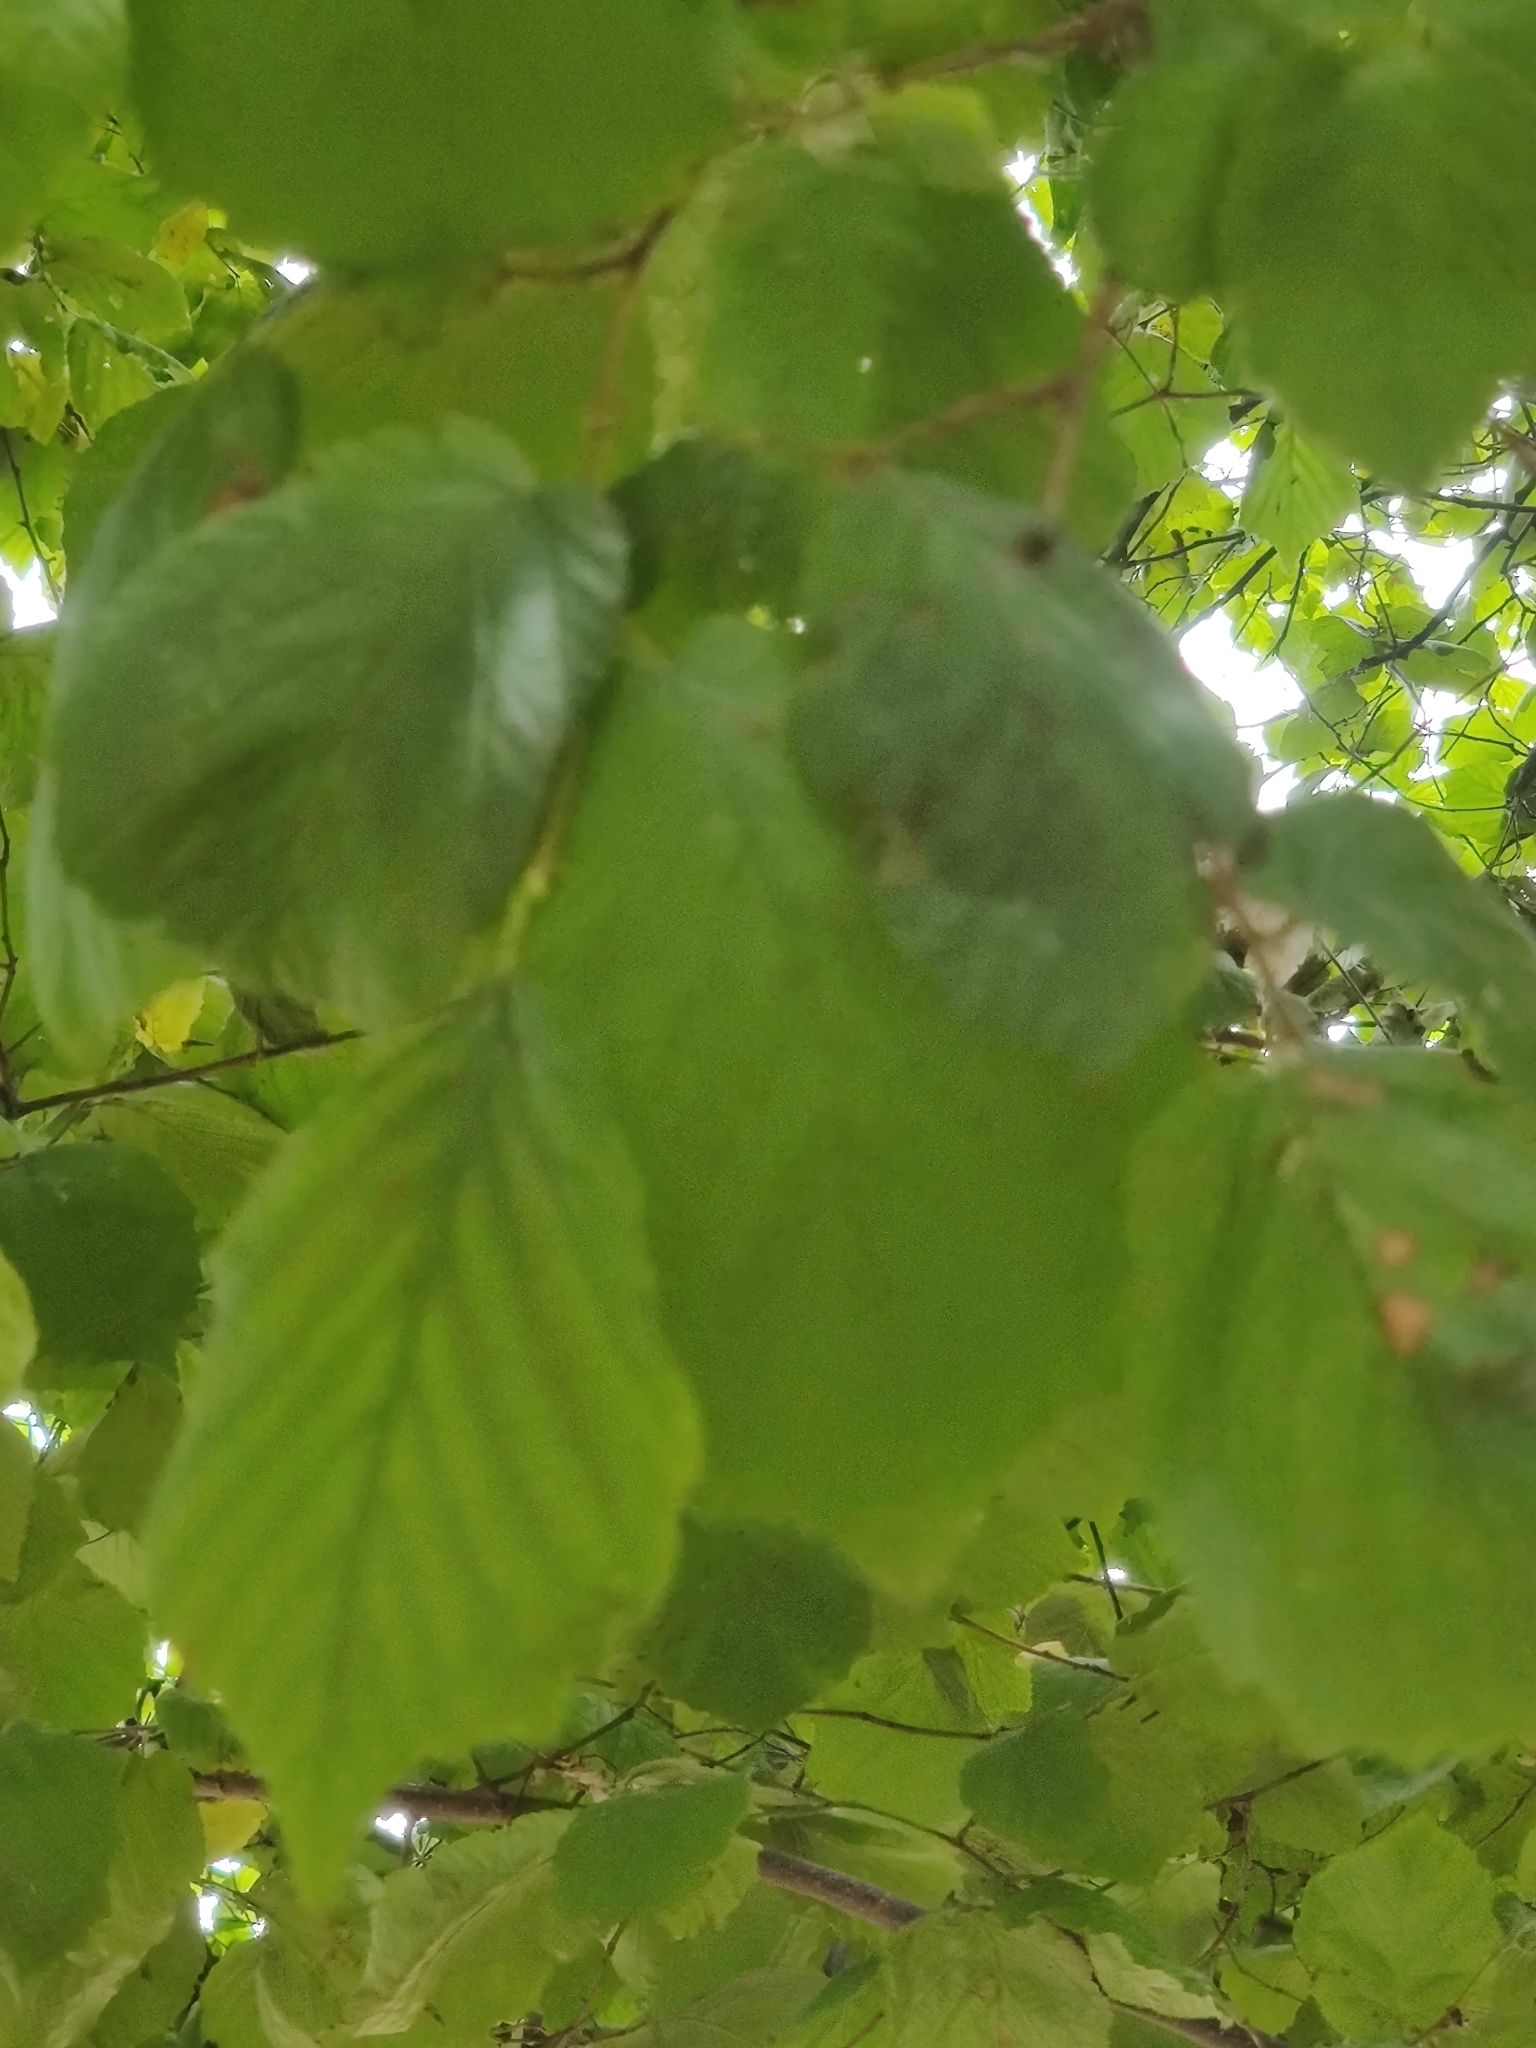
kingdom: Plantae
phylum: Tracheophyta
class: Magnoliopsida
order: Fagales
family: Betulaceae
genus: Corylus
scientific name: Corylus avellana
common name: European hazel
